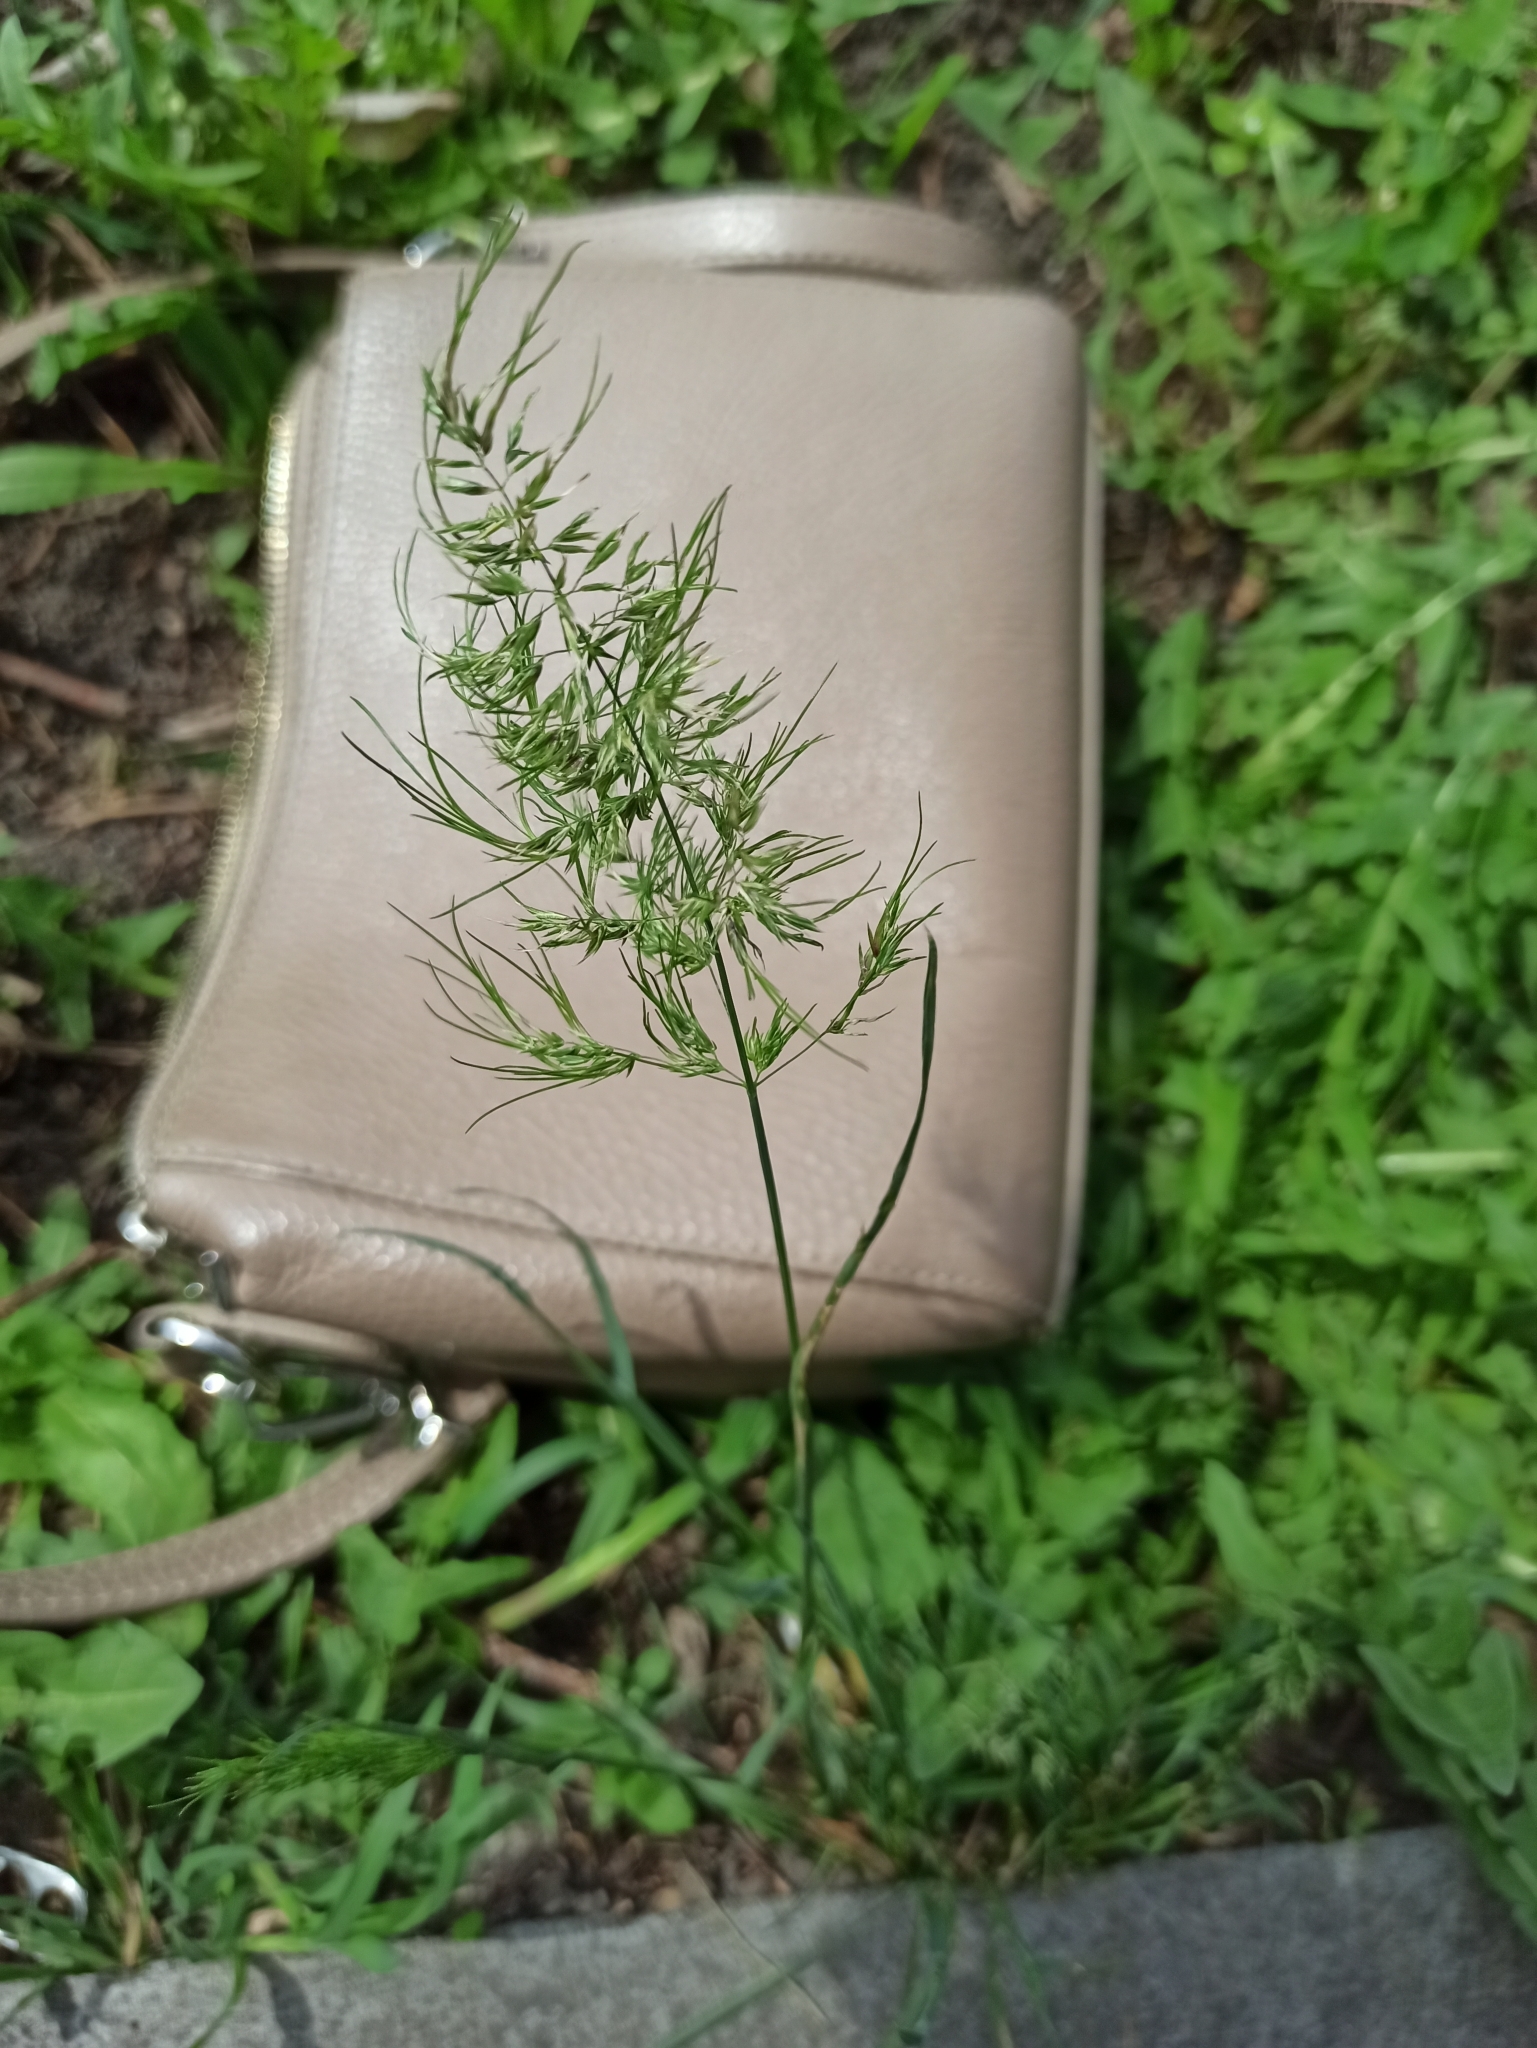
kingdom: Plantae
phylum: Tracheophyta
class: Liliopsida
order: Poales
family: Poaceae
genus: Poa
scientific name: Poa bulbosa
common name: Bulbous bluegrass
